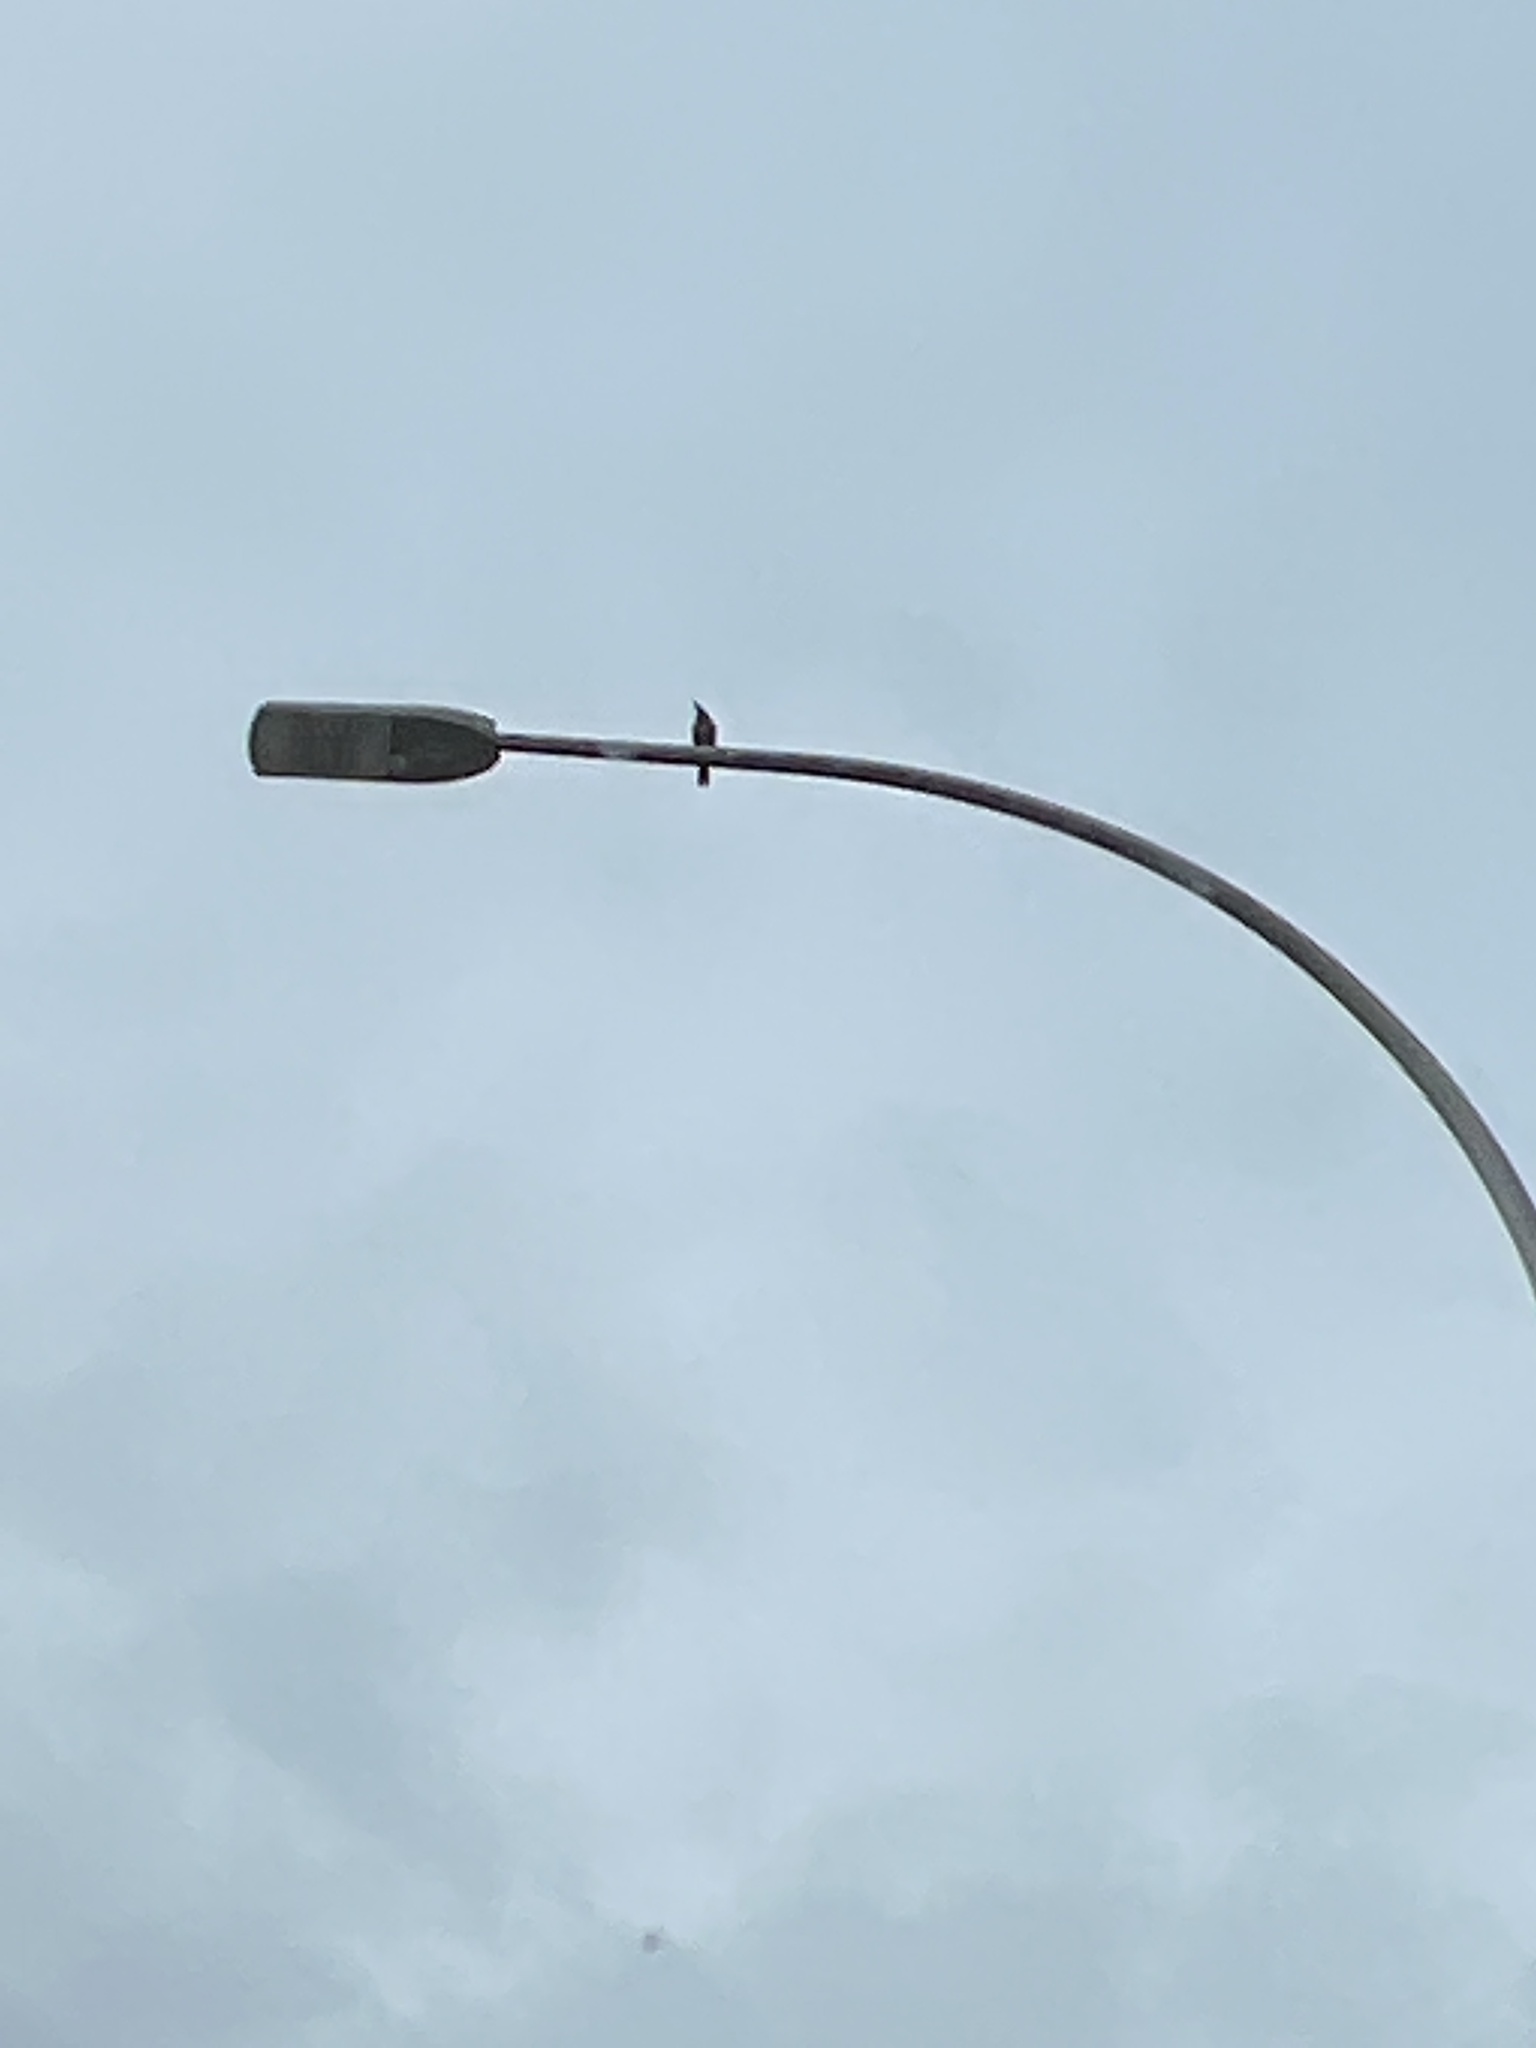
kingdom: Animalia
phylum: Chordata
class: Aves
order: Piciformes
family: Picidae
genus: Colaptes
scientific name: Colaptes auratus
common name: Northern flicker
